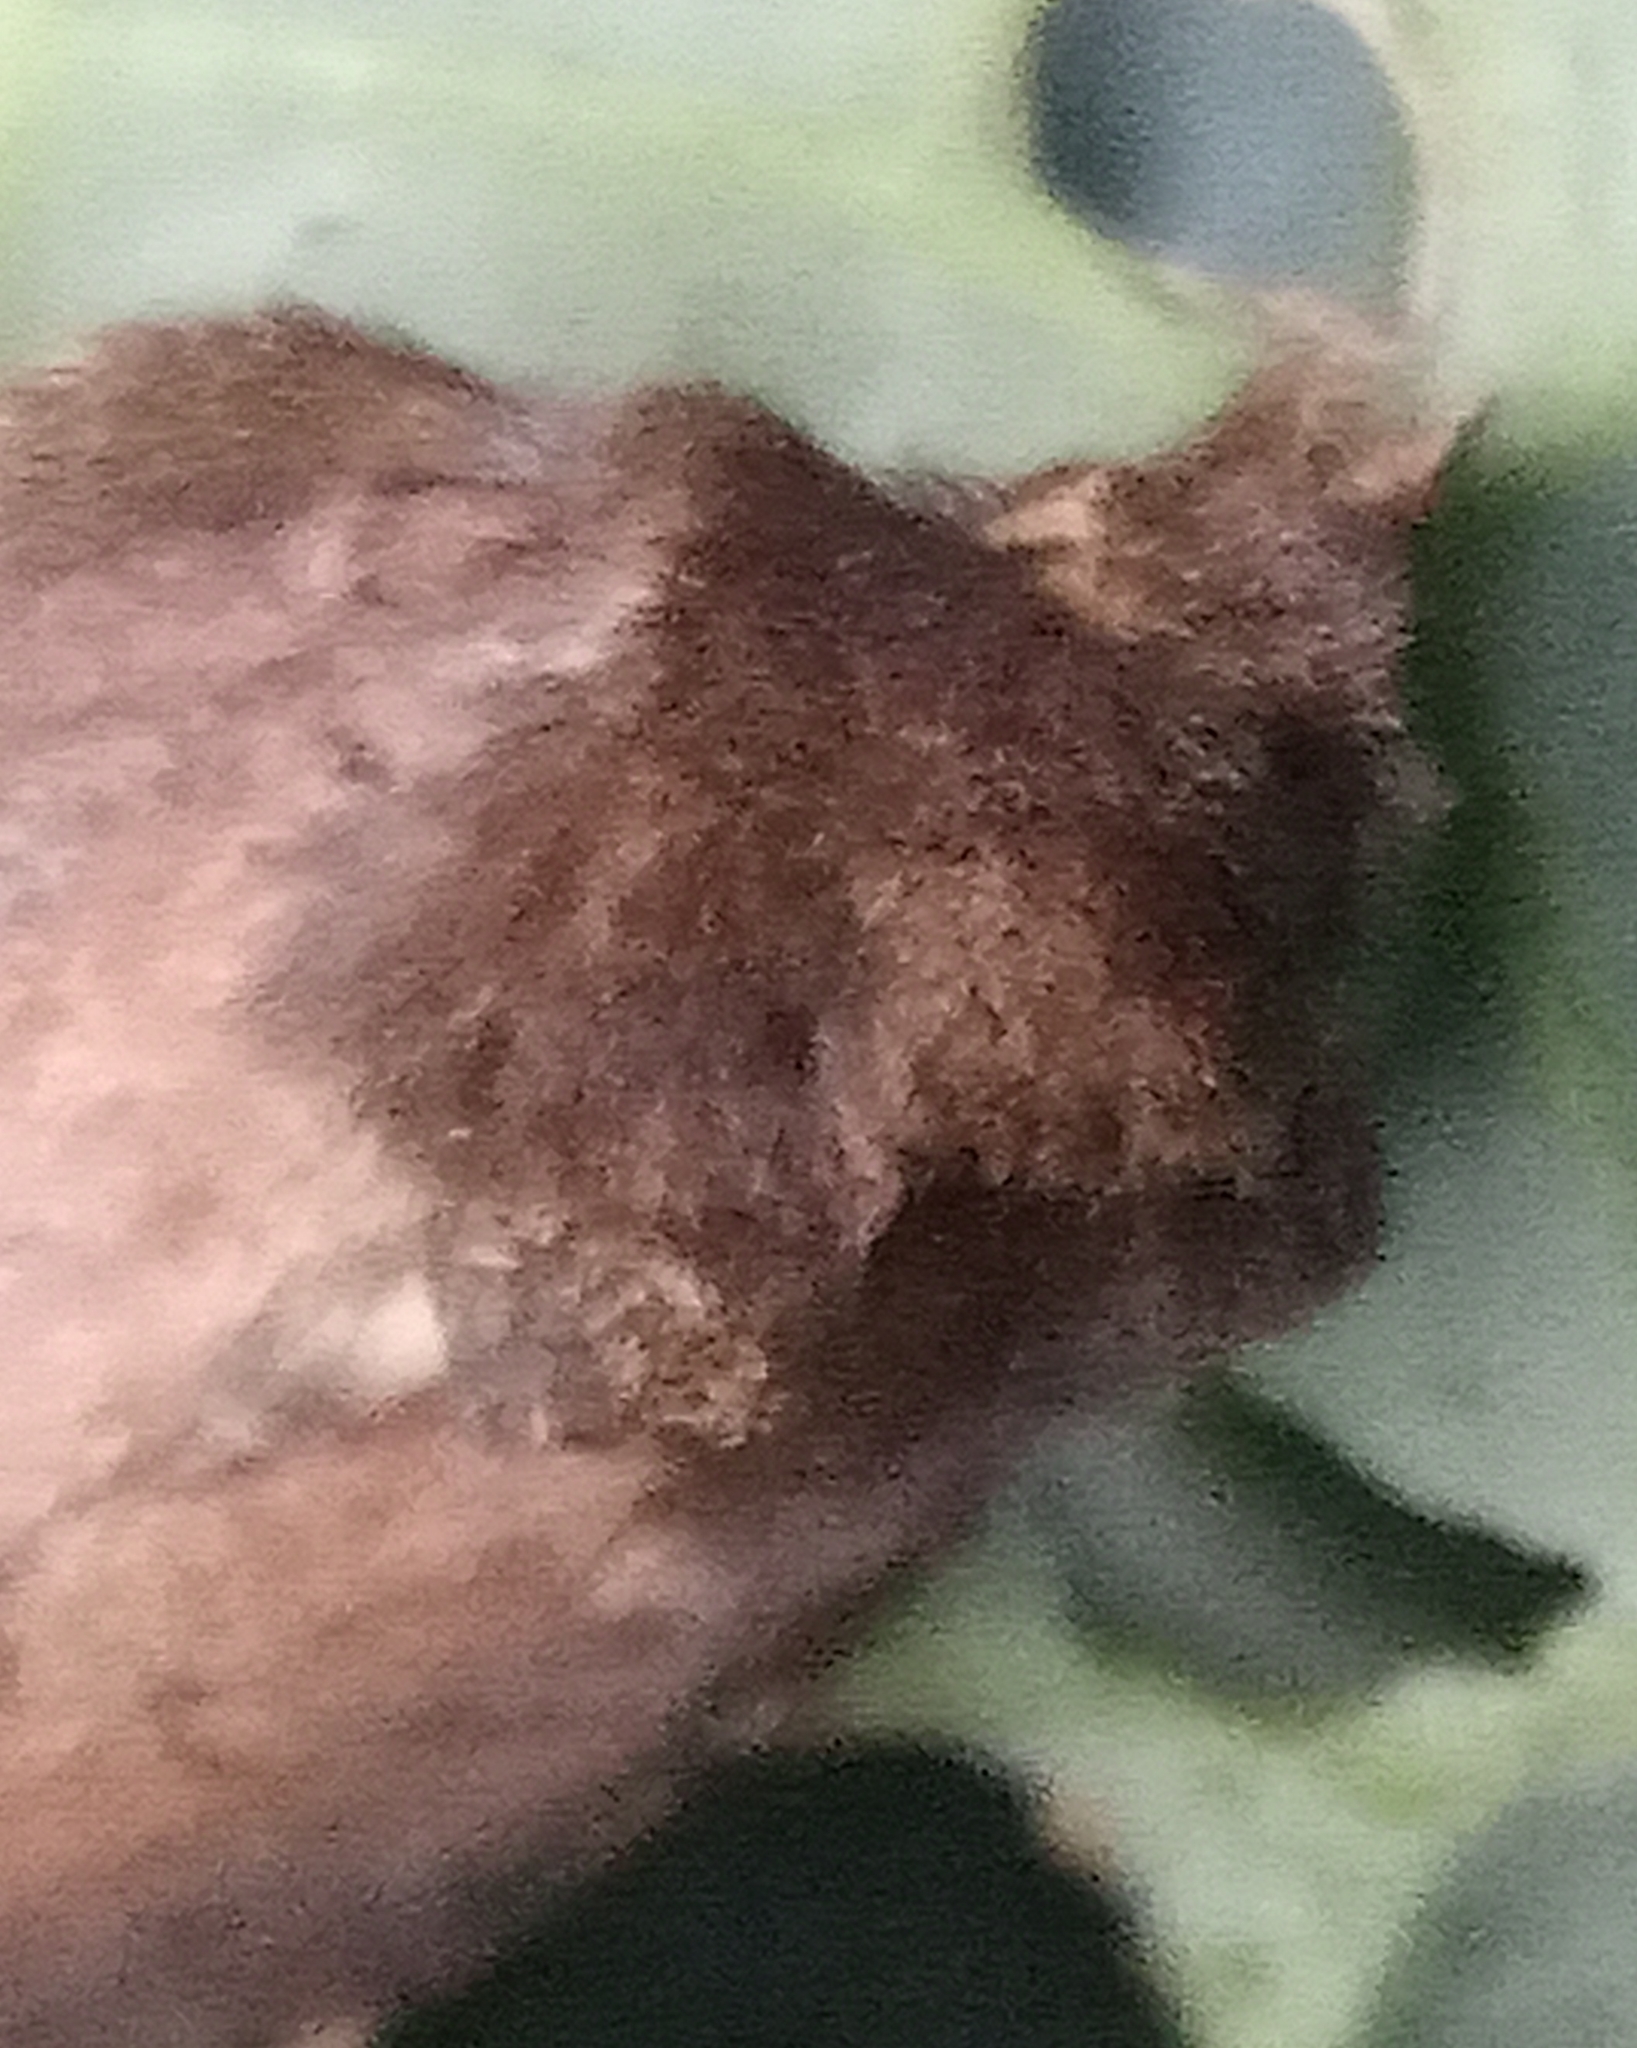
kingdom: Animalia
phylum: Arthropoda
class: Insecta
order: Lepidoptera
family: Noctuidae
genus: Charanyca
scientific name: Charanyca ferruginea
